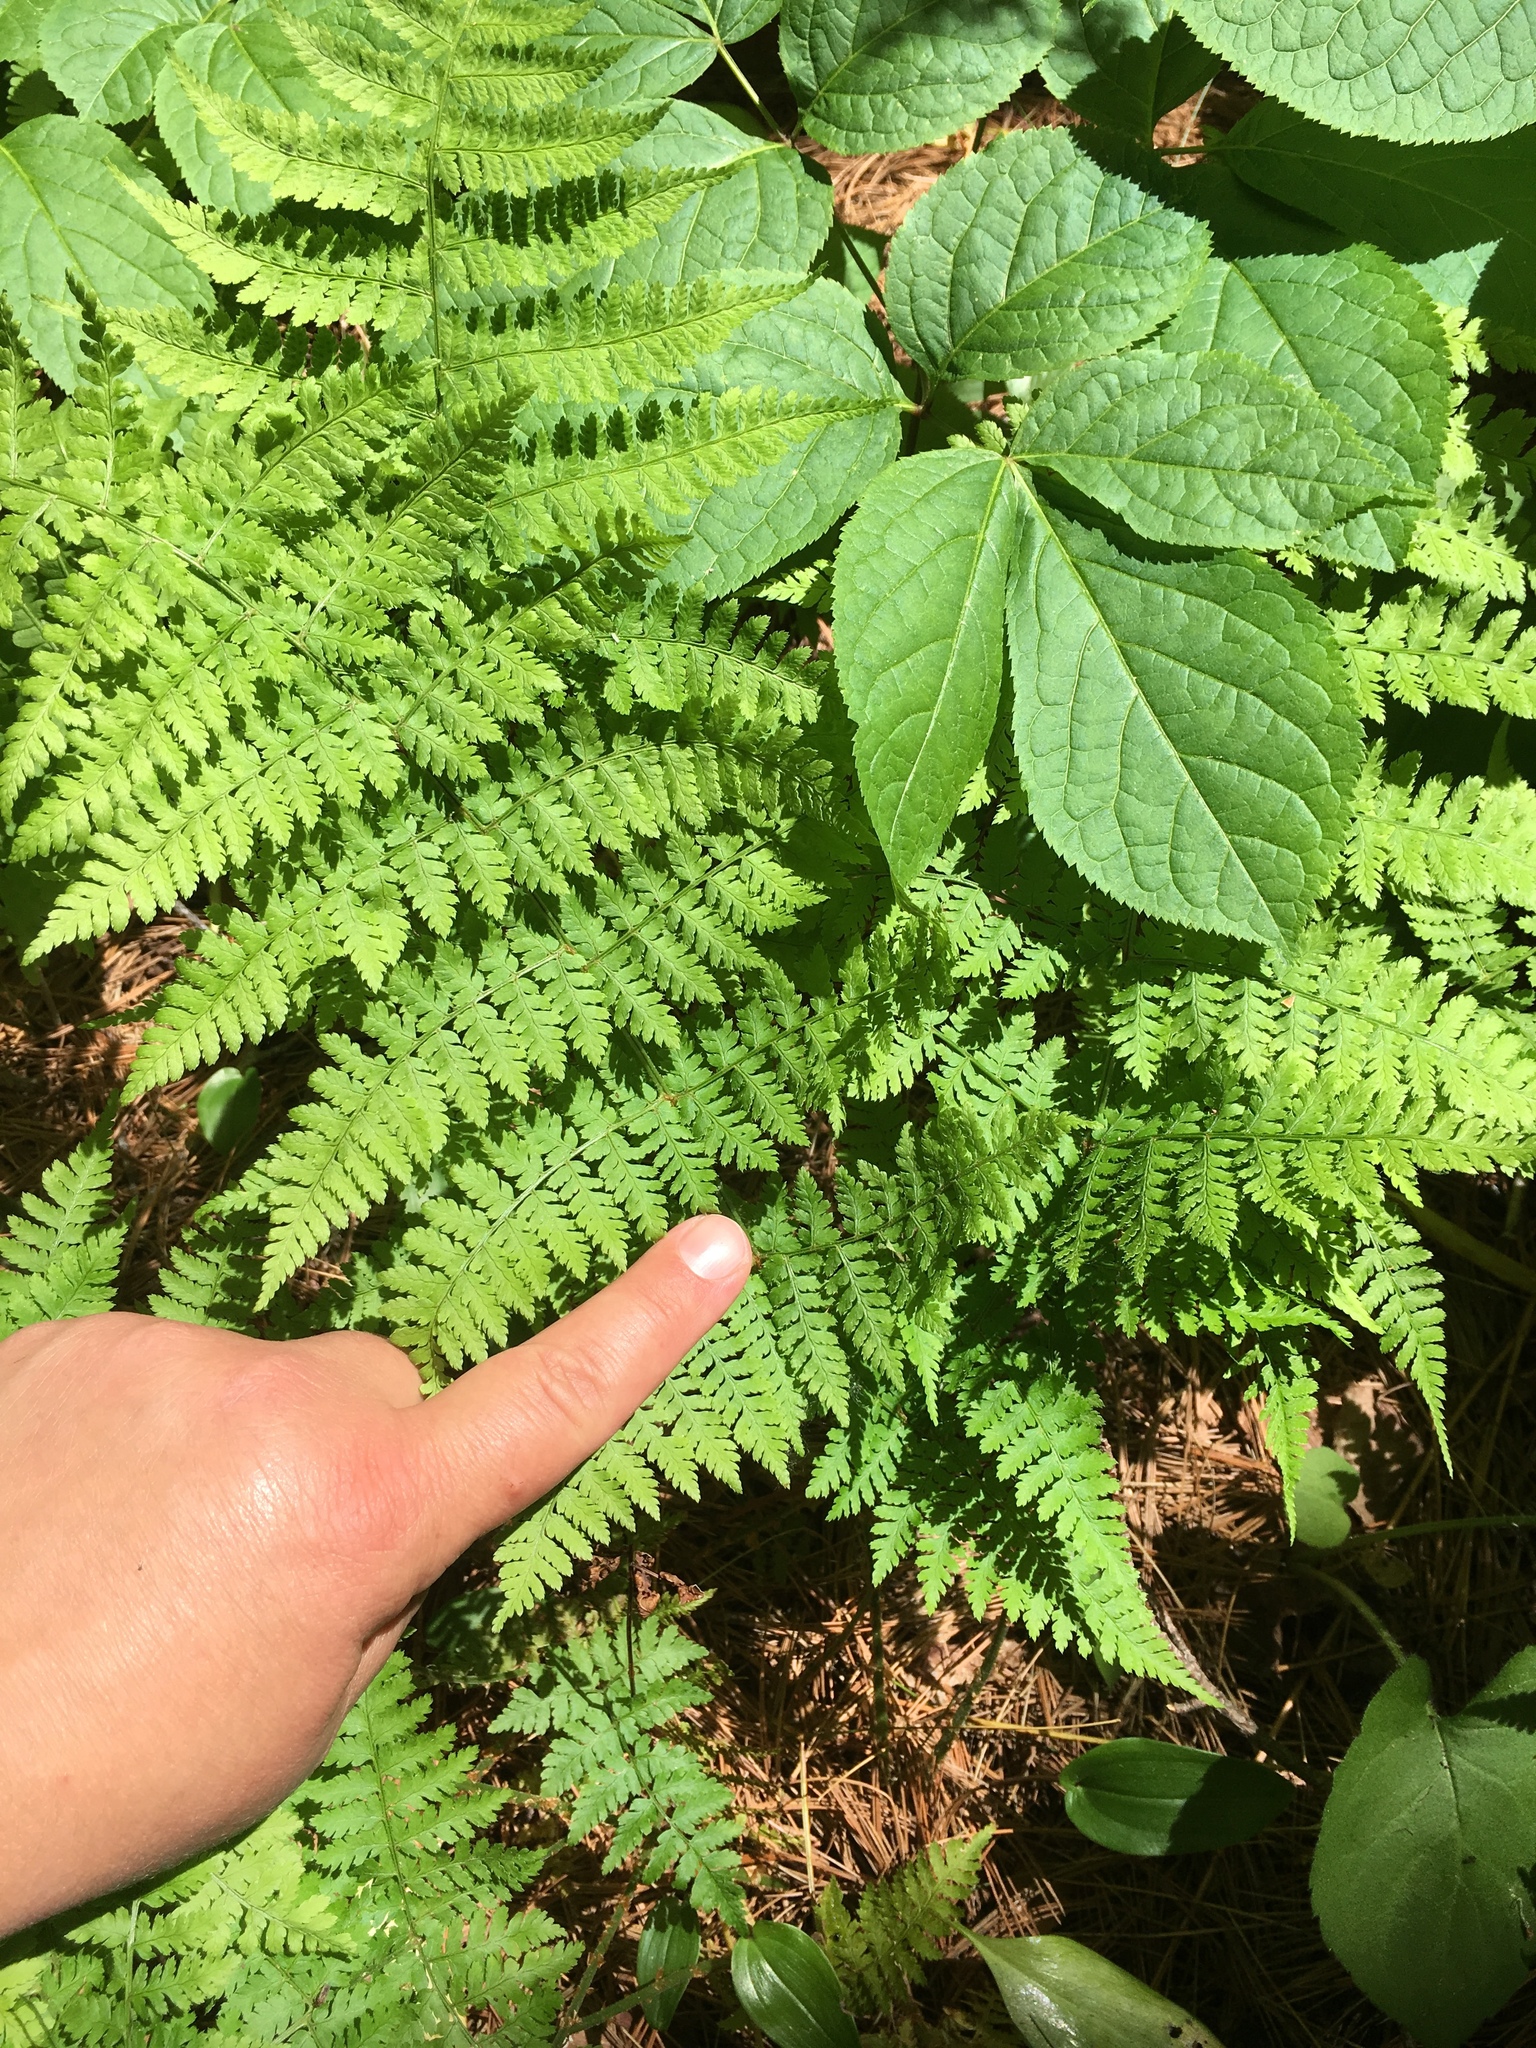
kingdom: Plantae
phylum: Tracheophyta
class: Polypodiopsida
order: Polypodiales
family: Dryopteridaceae
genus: Dryopteris
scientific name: Dryopteris intermedia
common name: Evergreen wood fern
